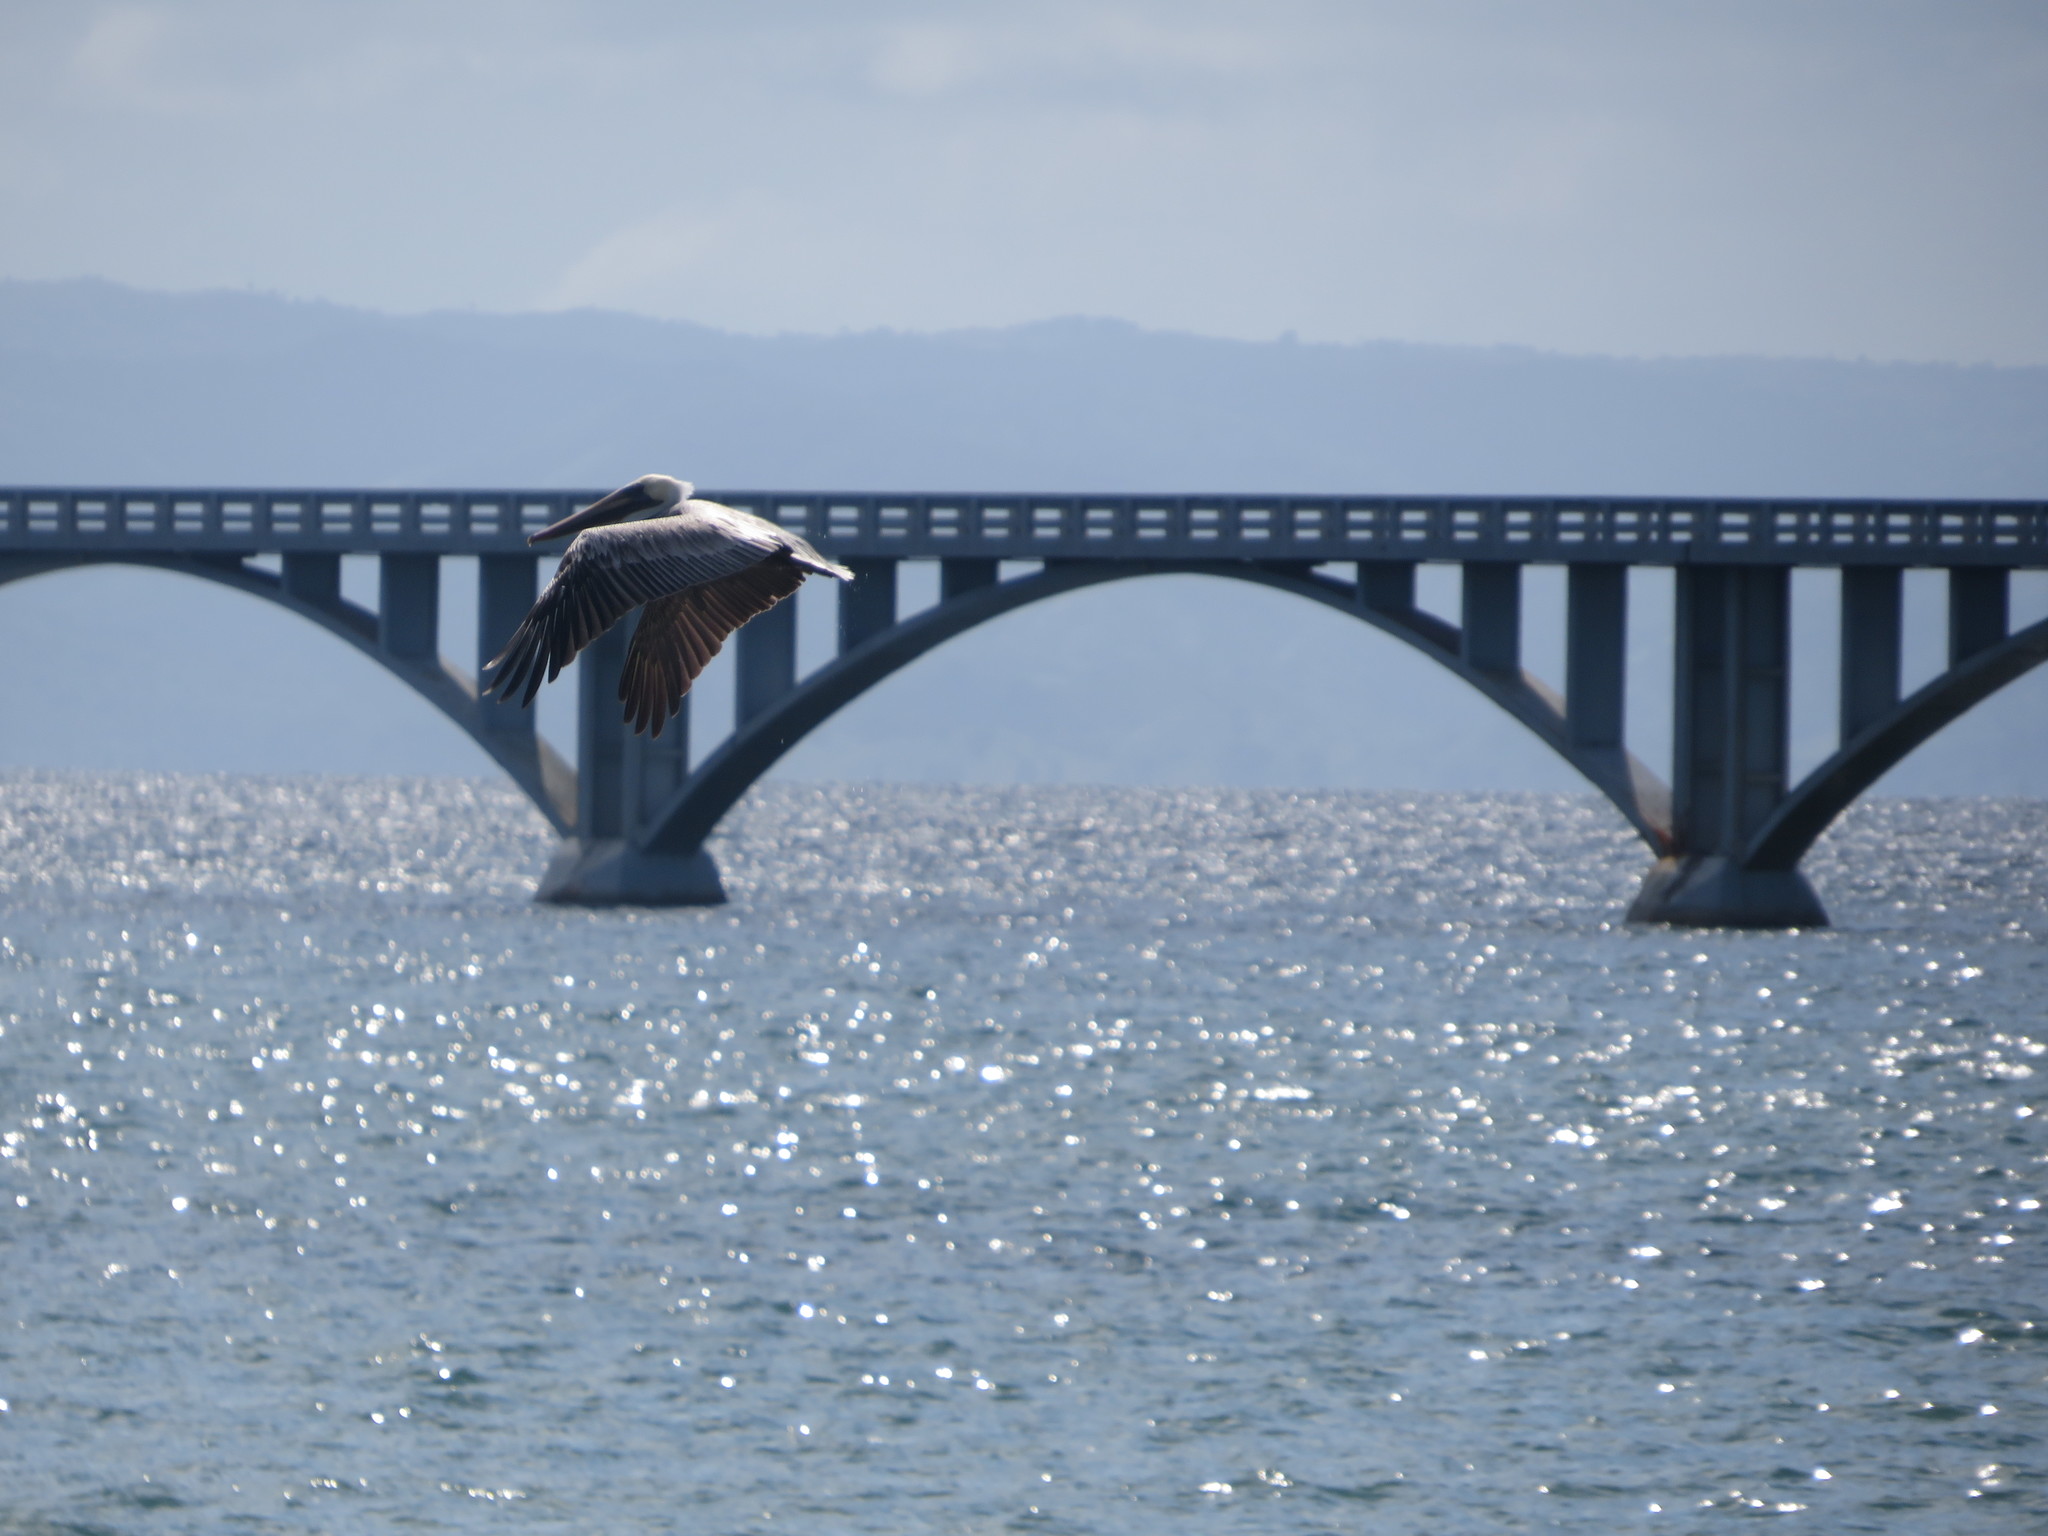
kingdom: Animalia
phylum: Chordata
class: Aves
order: Pelecaniformes
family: Pelecanidae
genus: Pelecanus
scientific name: Pelecanus occidentalis
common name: Brown pelican
